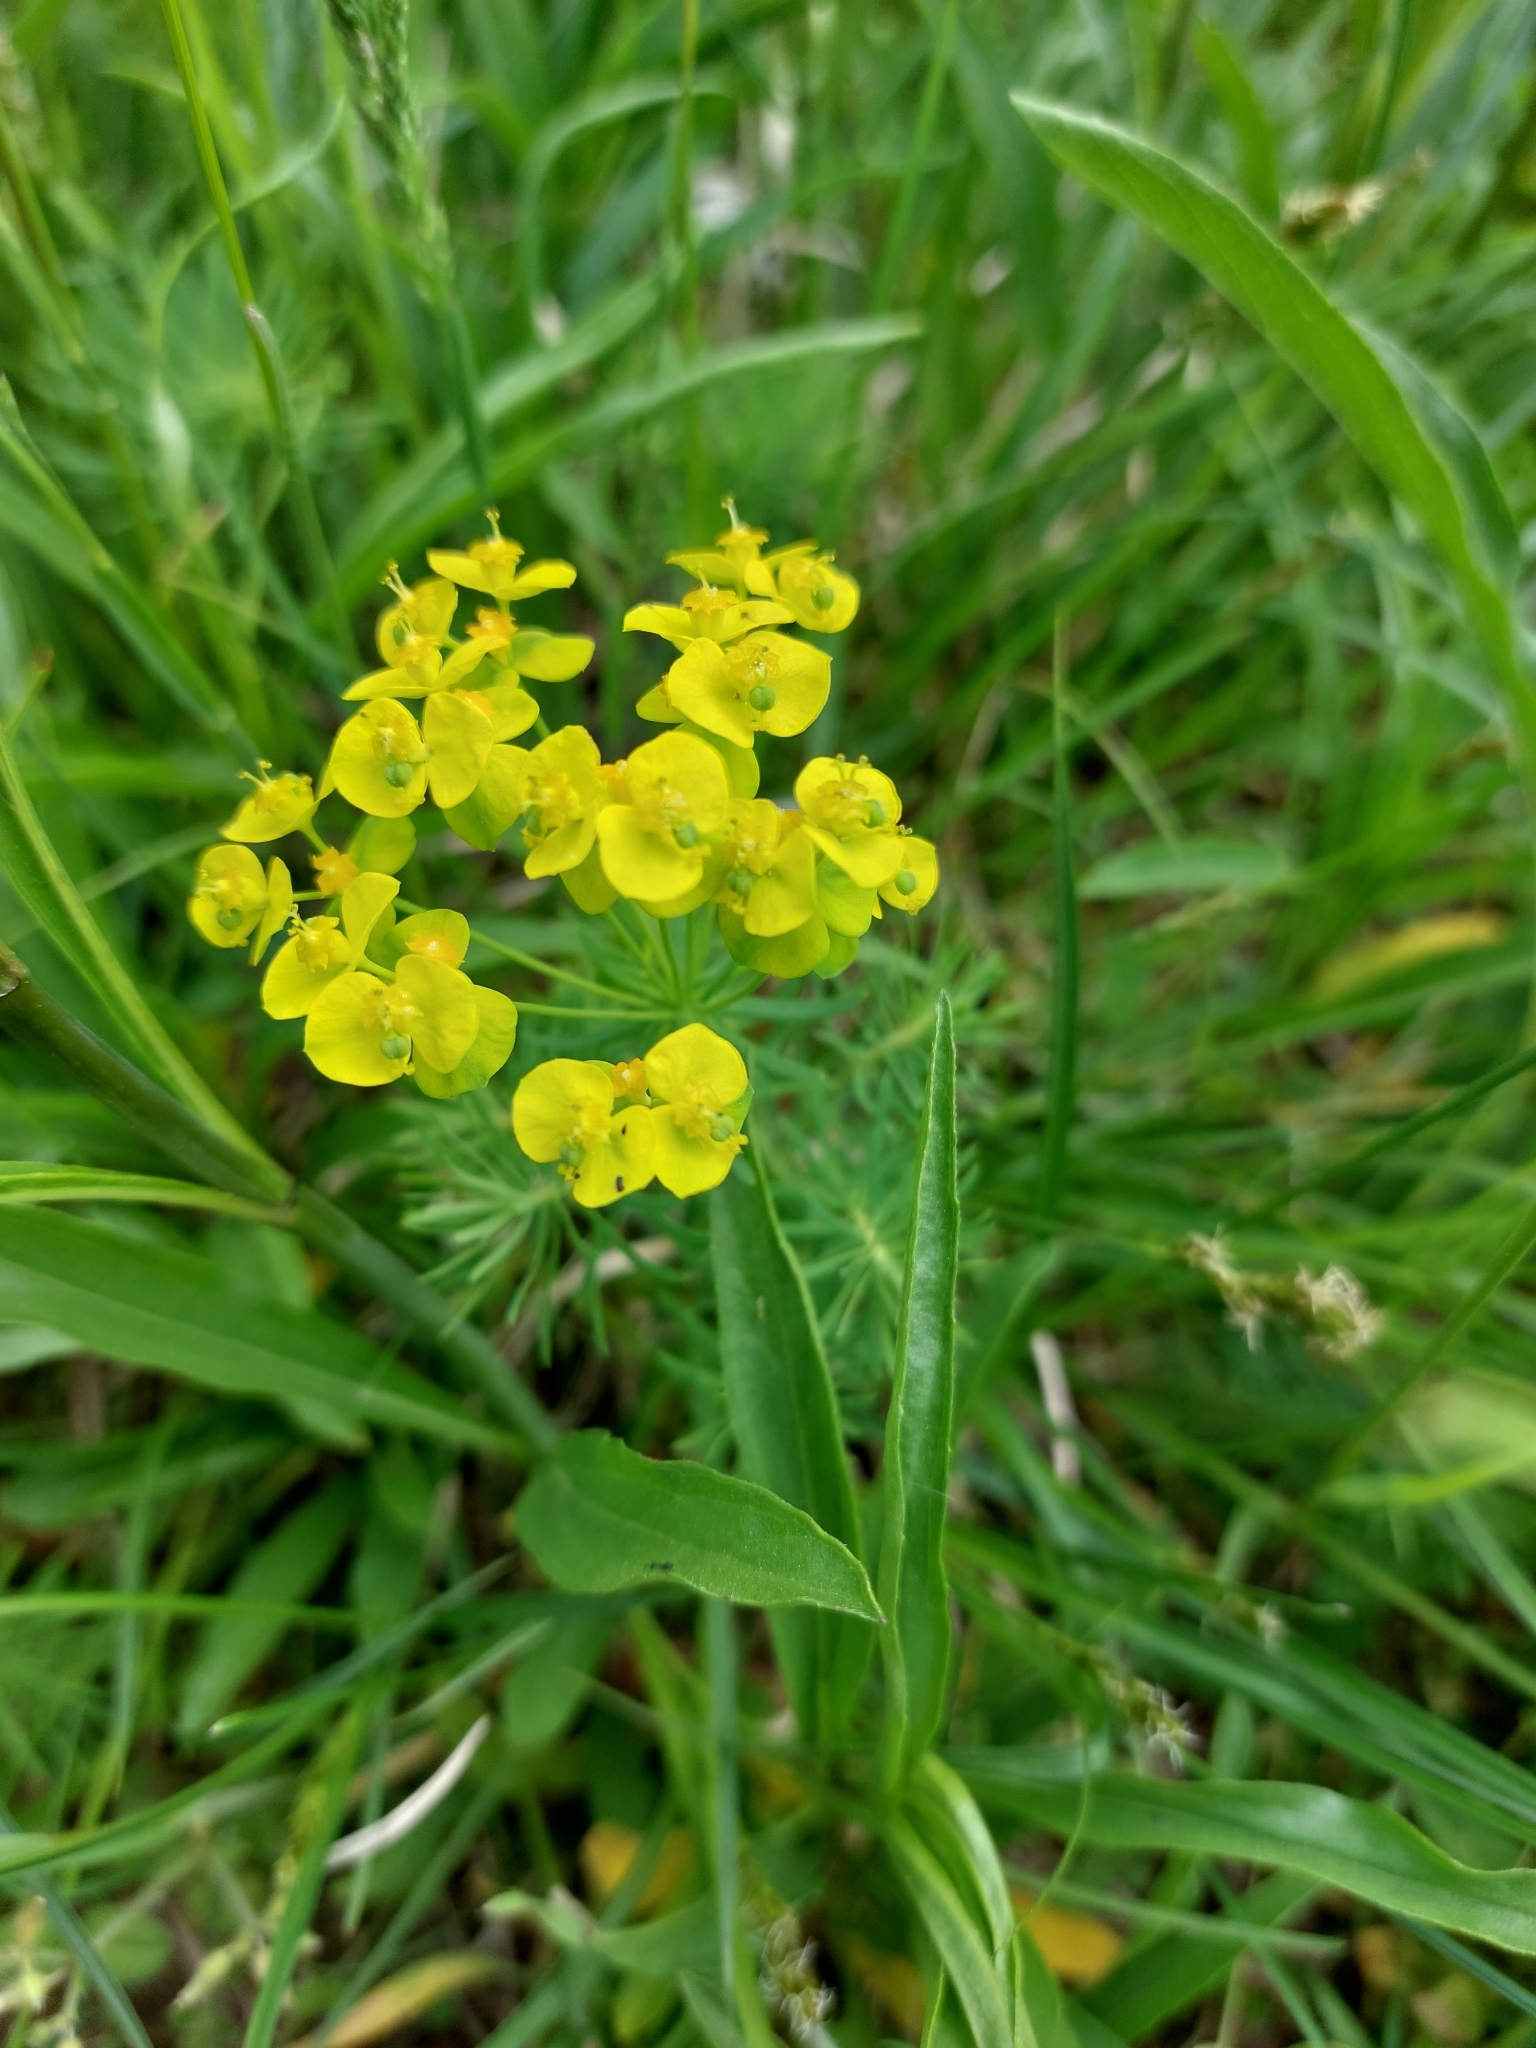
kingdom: Plantae
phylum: Tracheophyta
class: Magnoliopsida
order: Malpighiales
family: Euphorbiaceae
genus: Euphorbia
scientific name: Euphorbia cyparissias
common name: Cypress spurge
